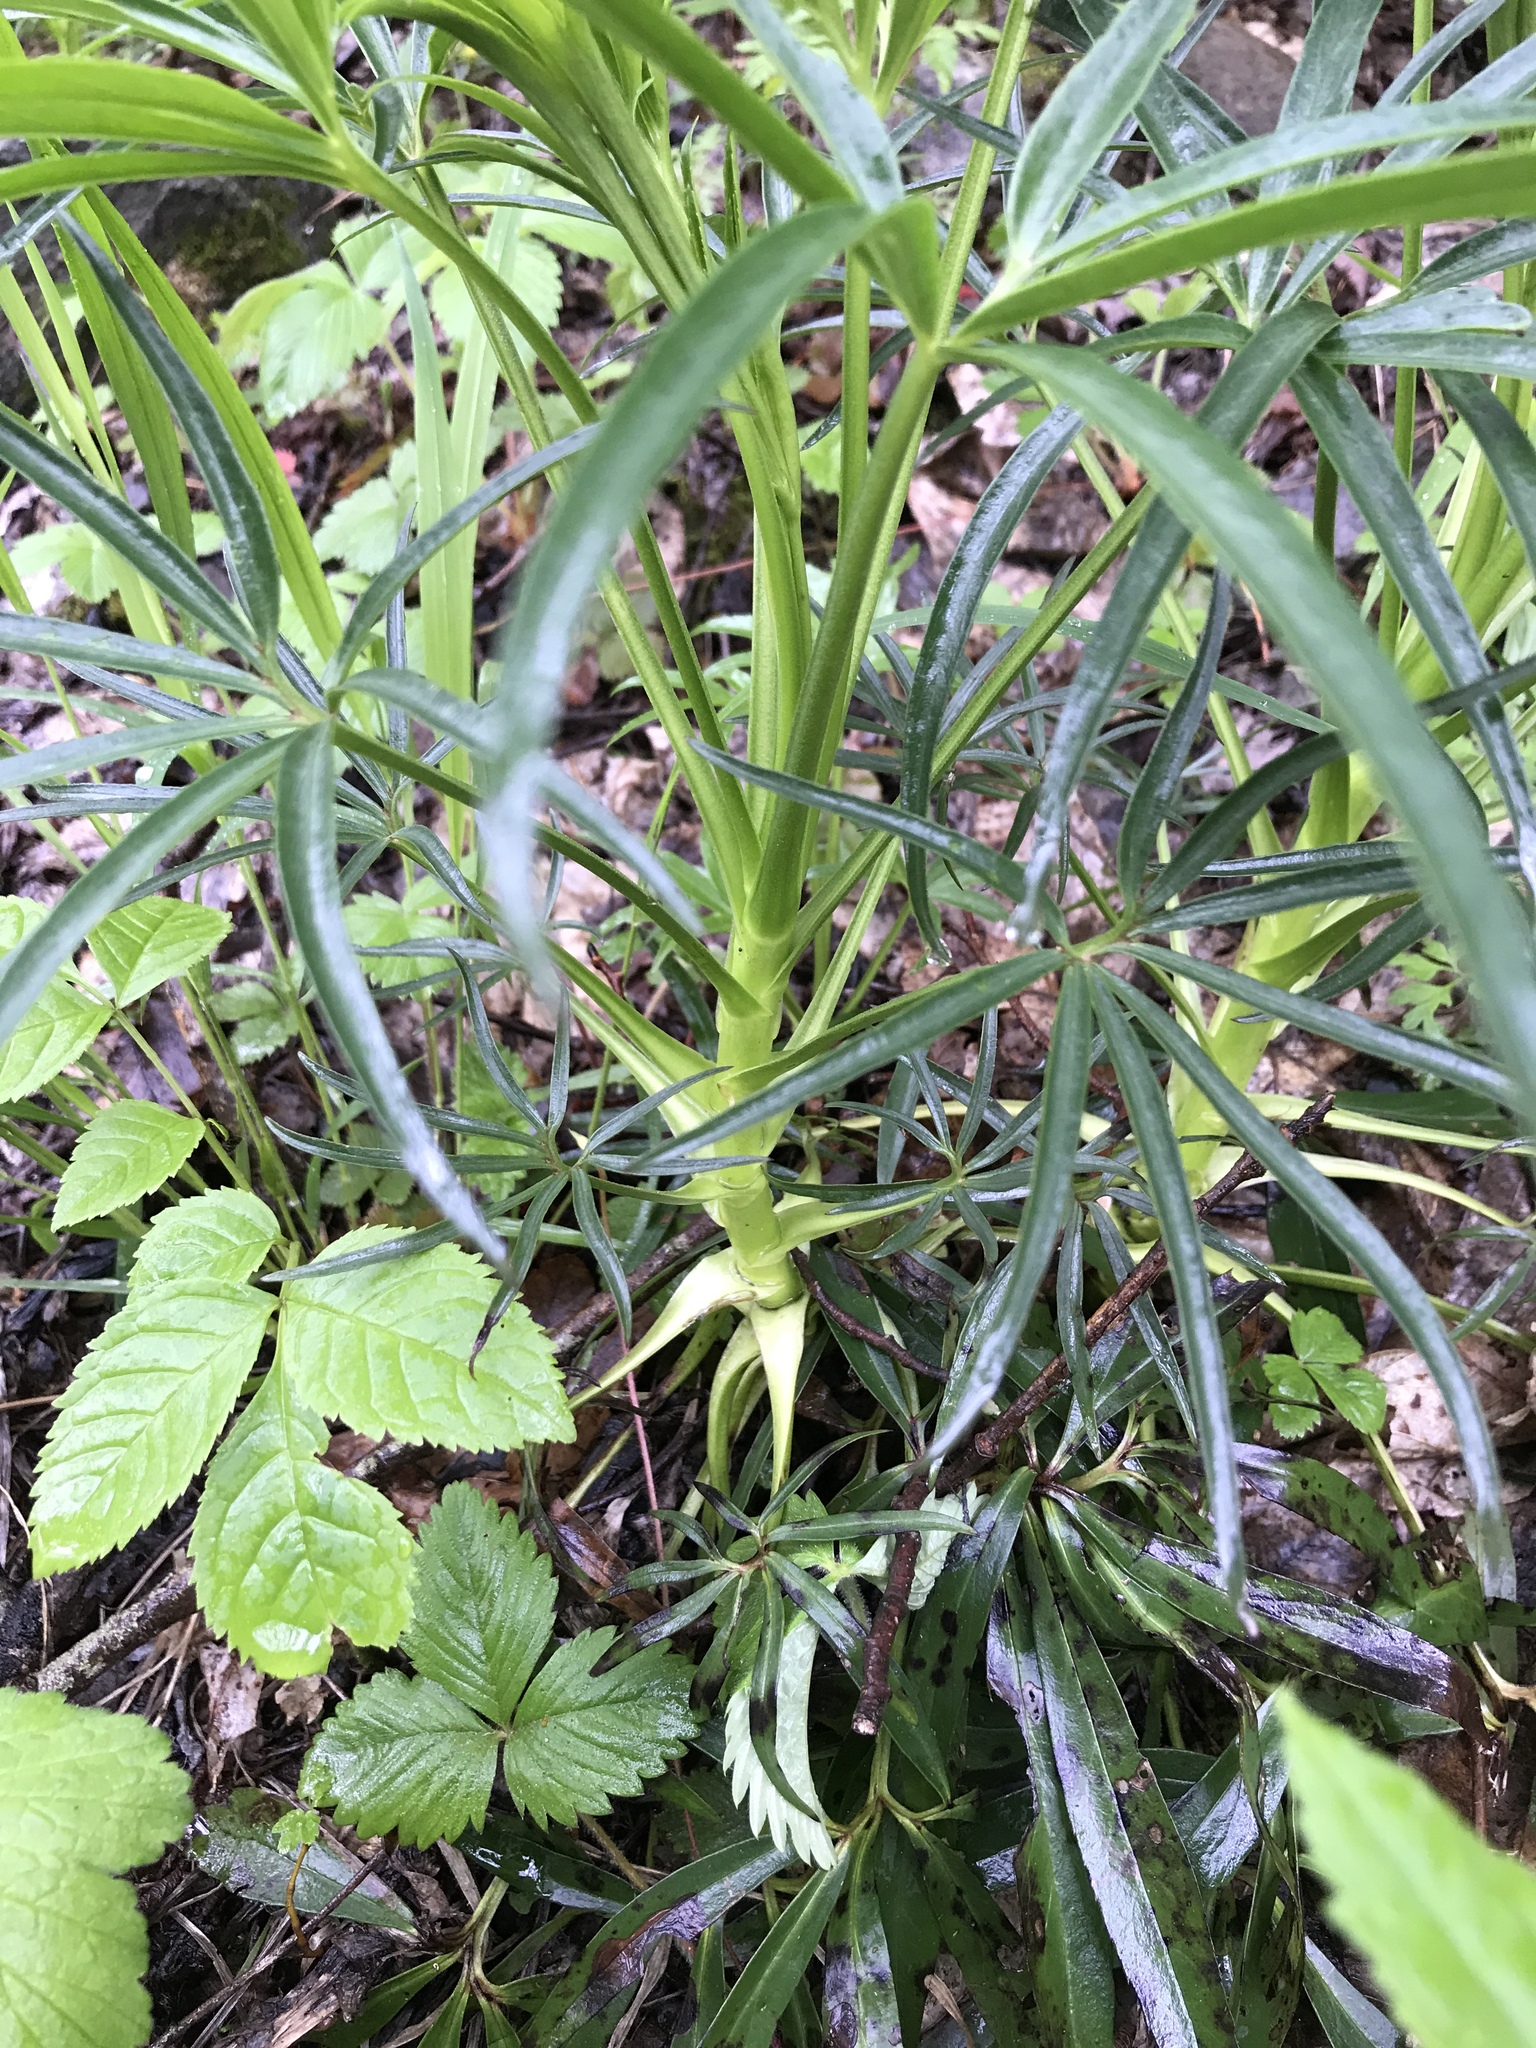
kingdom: Plantae
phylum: Tracheophyta
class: Magnoliopsida
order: Ranunculales
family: Ranunculaceae
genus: Helleborus
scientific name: Helleborus foetidus
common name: Stinking hellebore
